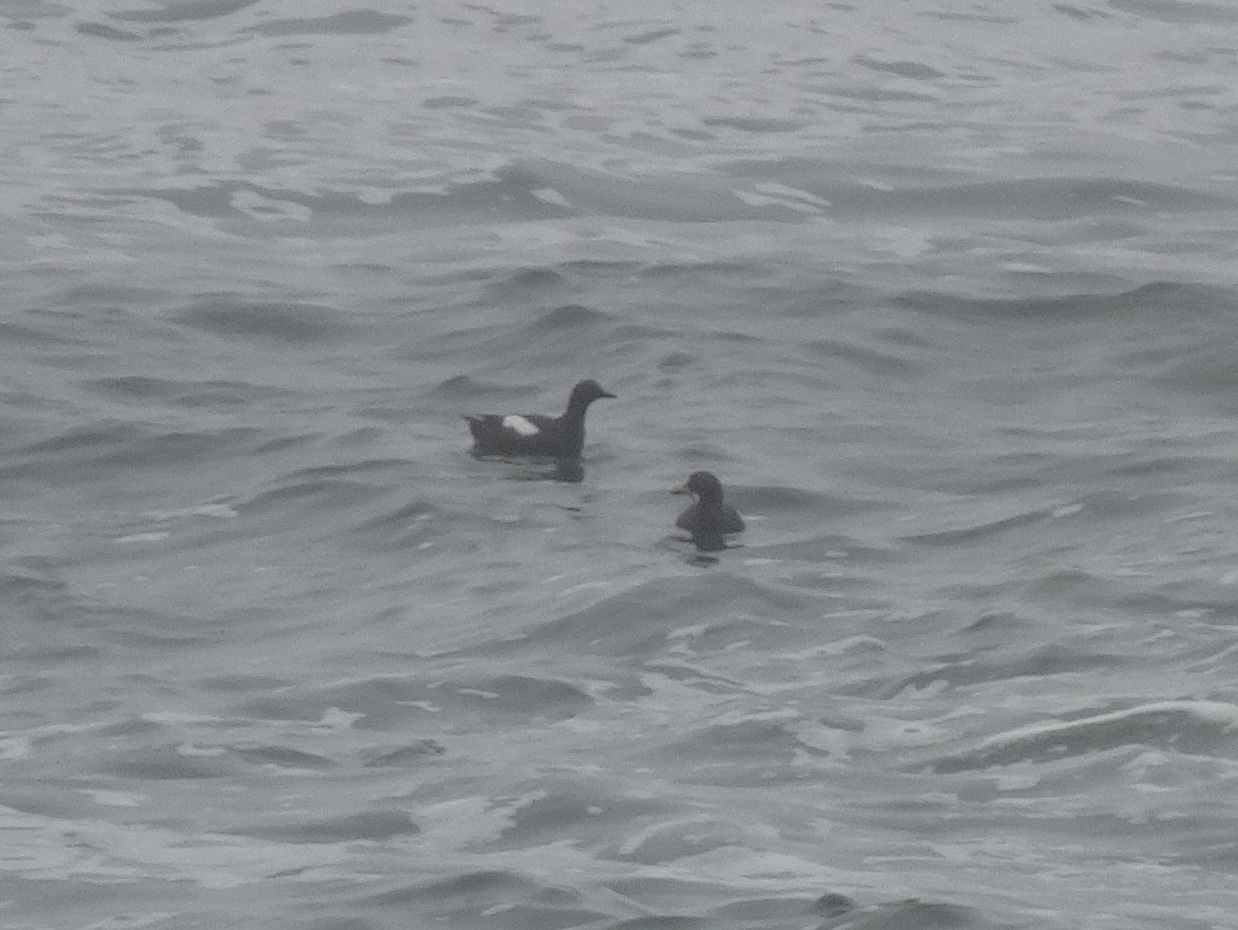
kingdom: Animalia
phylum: Chordata
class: Aves
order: Charadriiformes
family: Alcidae
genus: Cepphus
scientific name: Cepphus columba
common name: Pigeon guillemot
